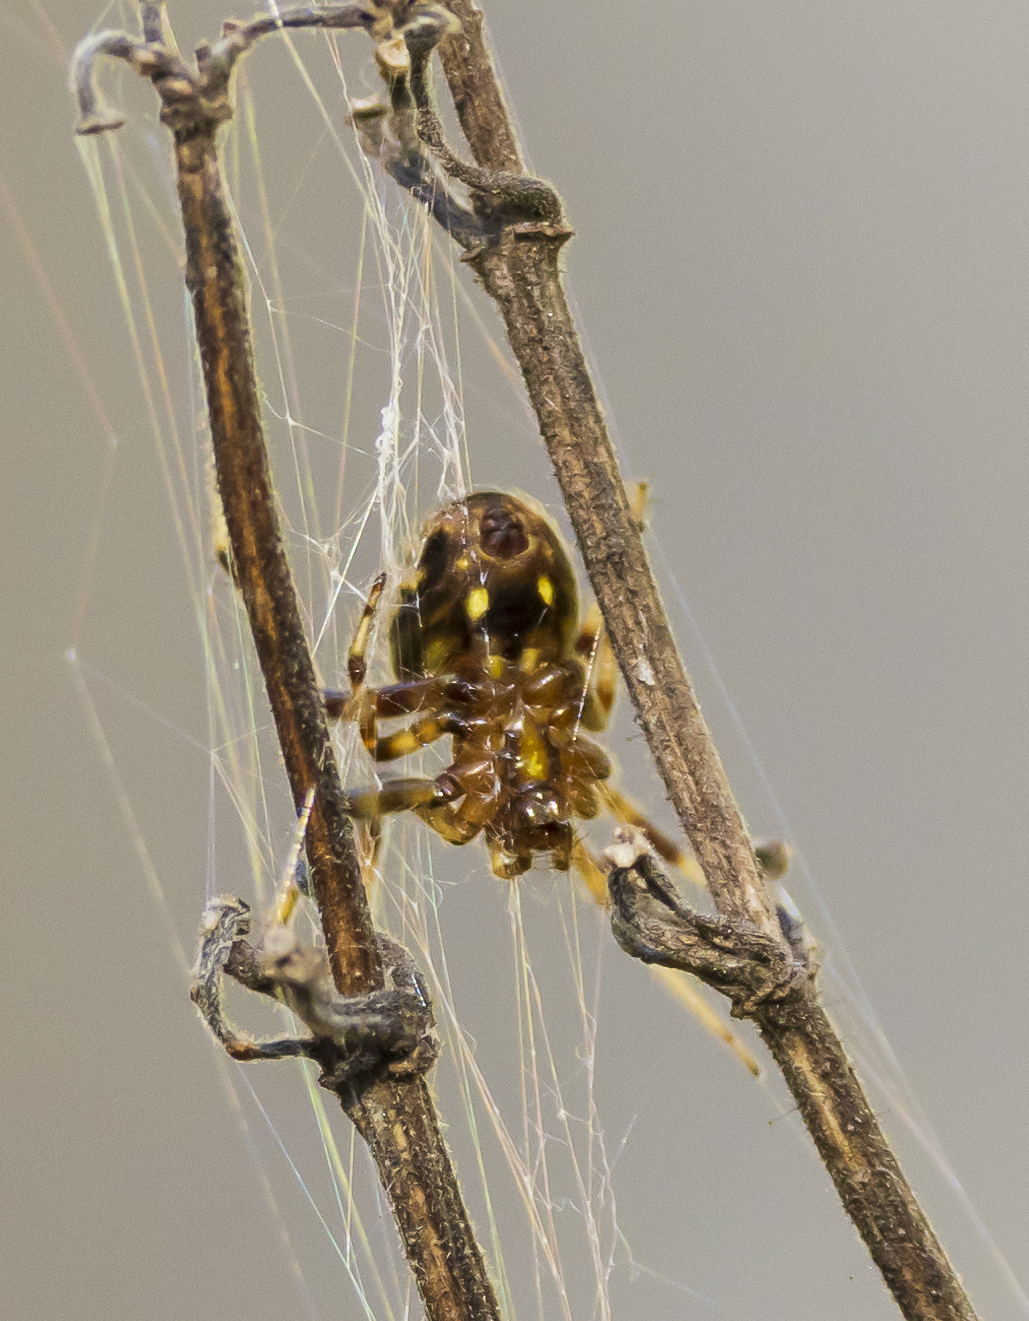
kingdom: Animalia
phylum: Arthropoda
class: Arachnida
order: Araneae
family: Araneidae
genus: Neoscona
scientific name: Neoscona arabesca
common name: Orb weavers
